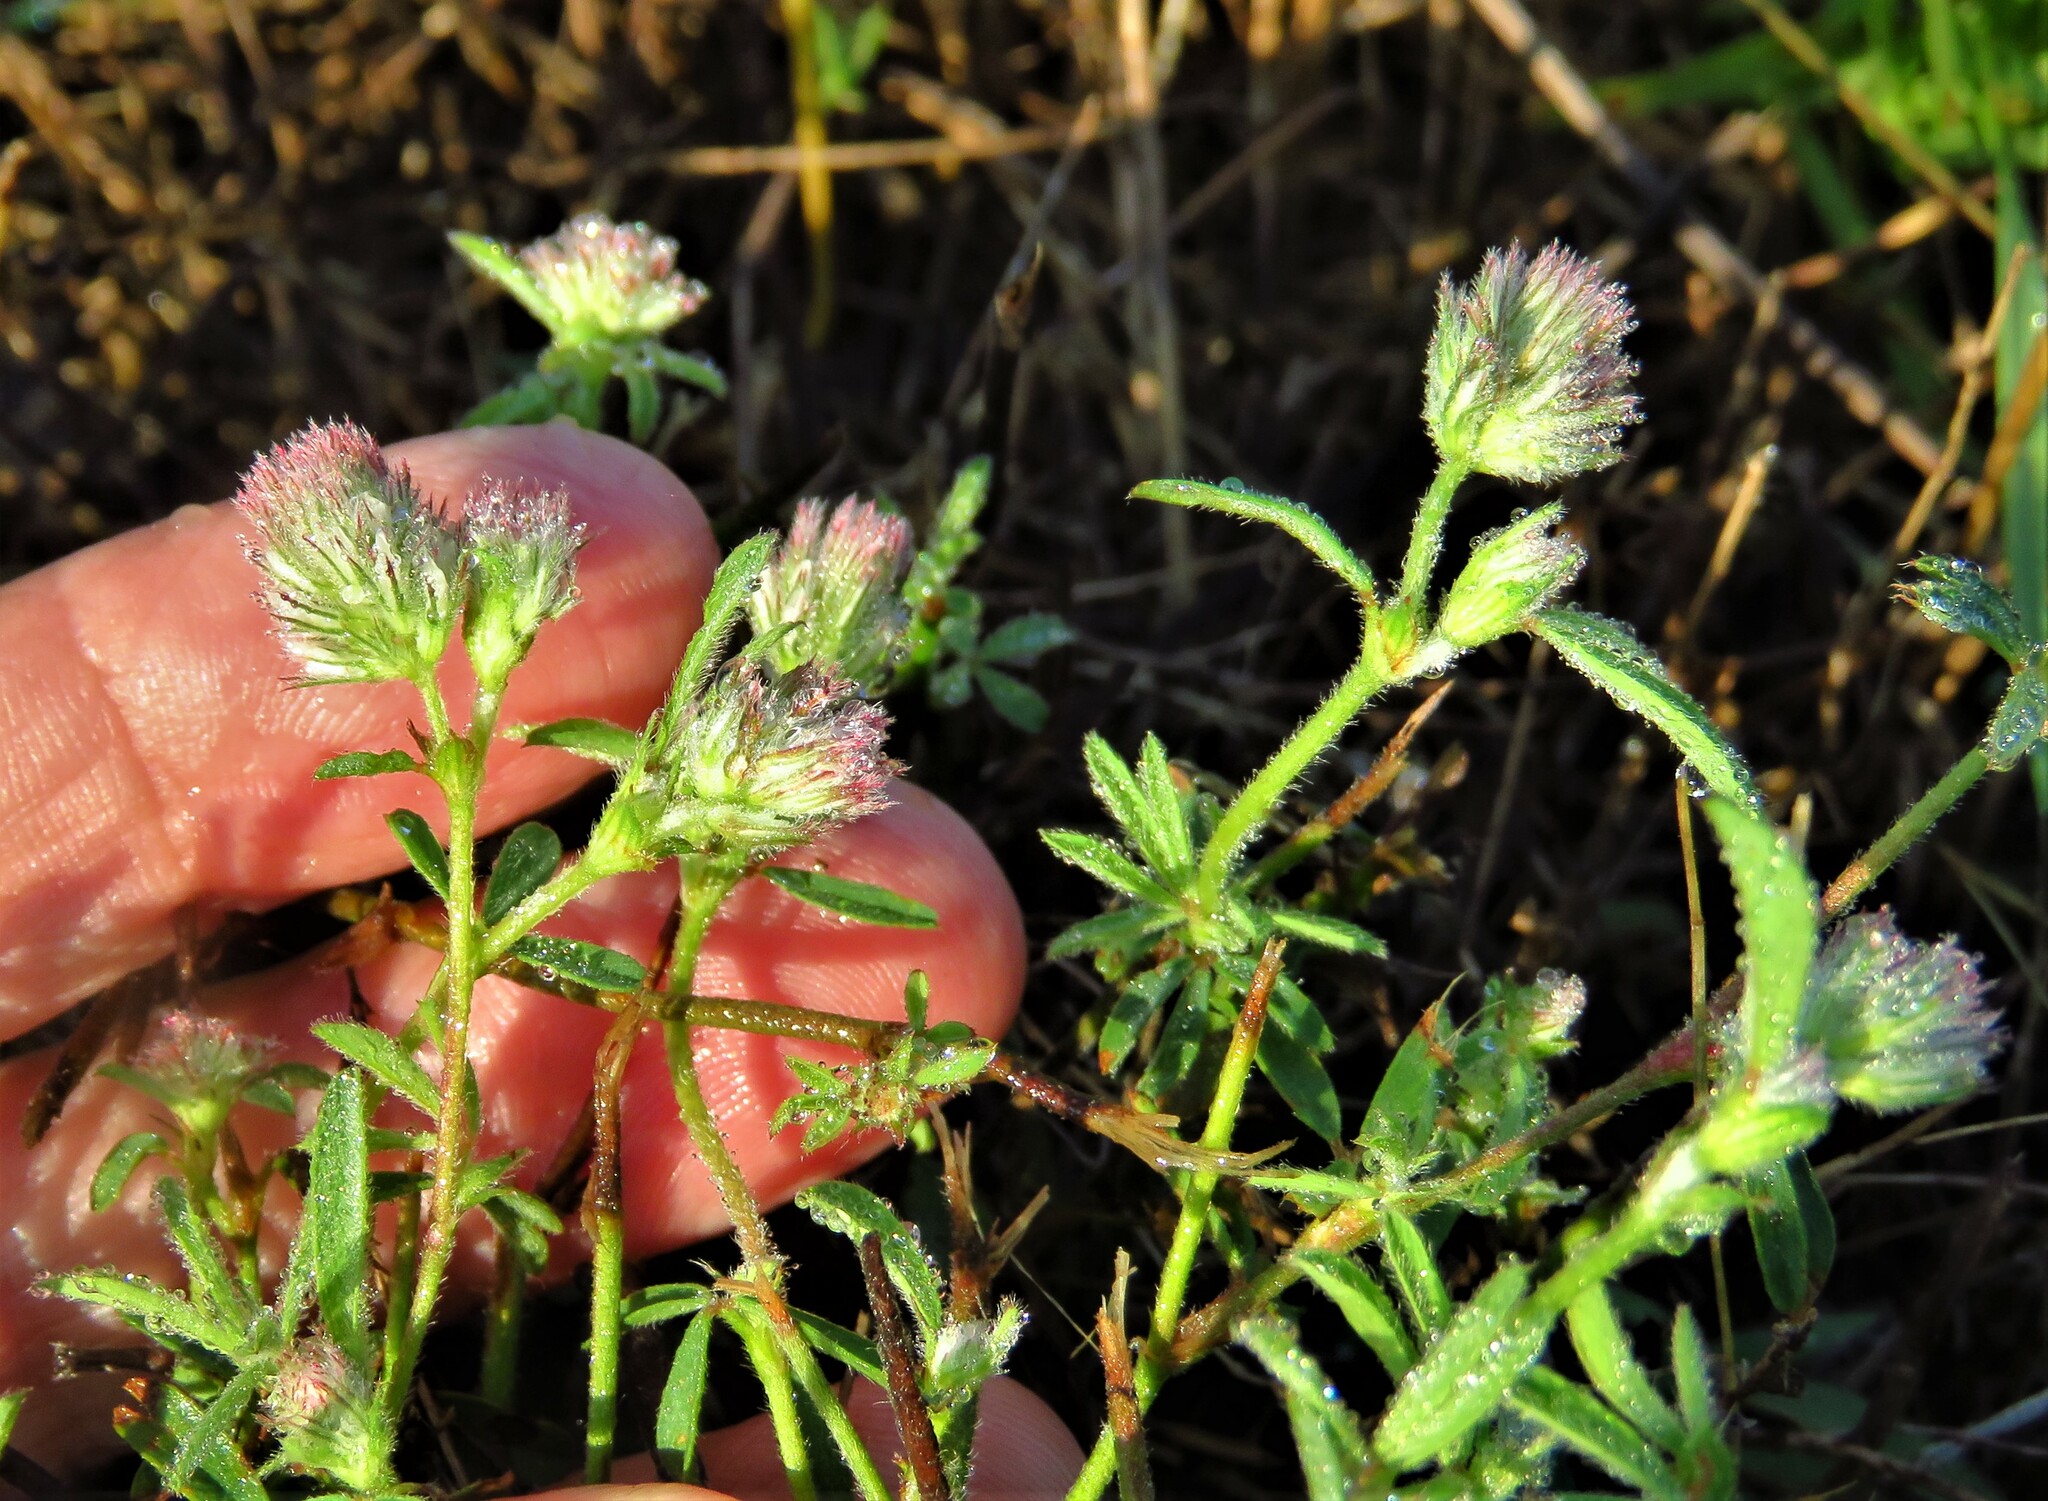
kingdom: Plantae
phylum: Tracheophyta
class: Magnoliopsida
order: Fabales
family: Fabaceae
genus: Trifolium
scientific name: Trifolium arvense
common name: Hare's-foot clover
